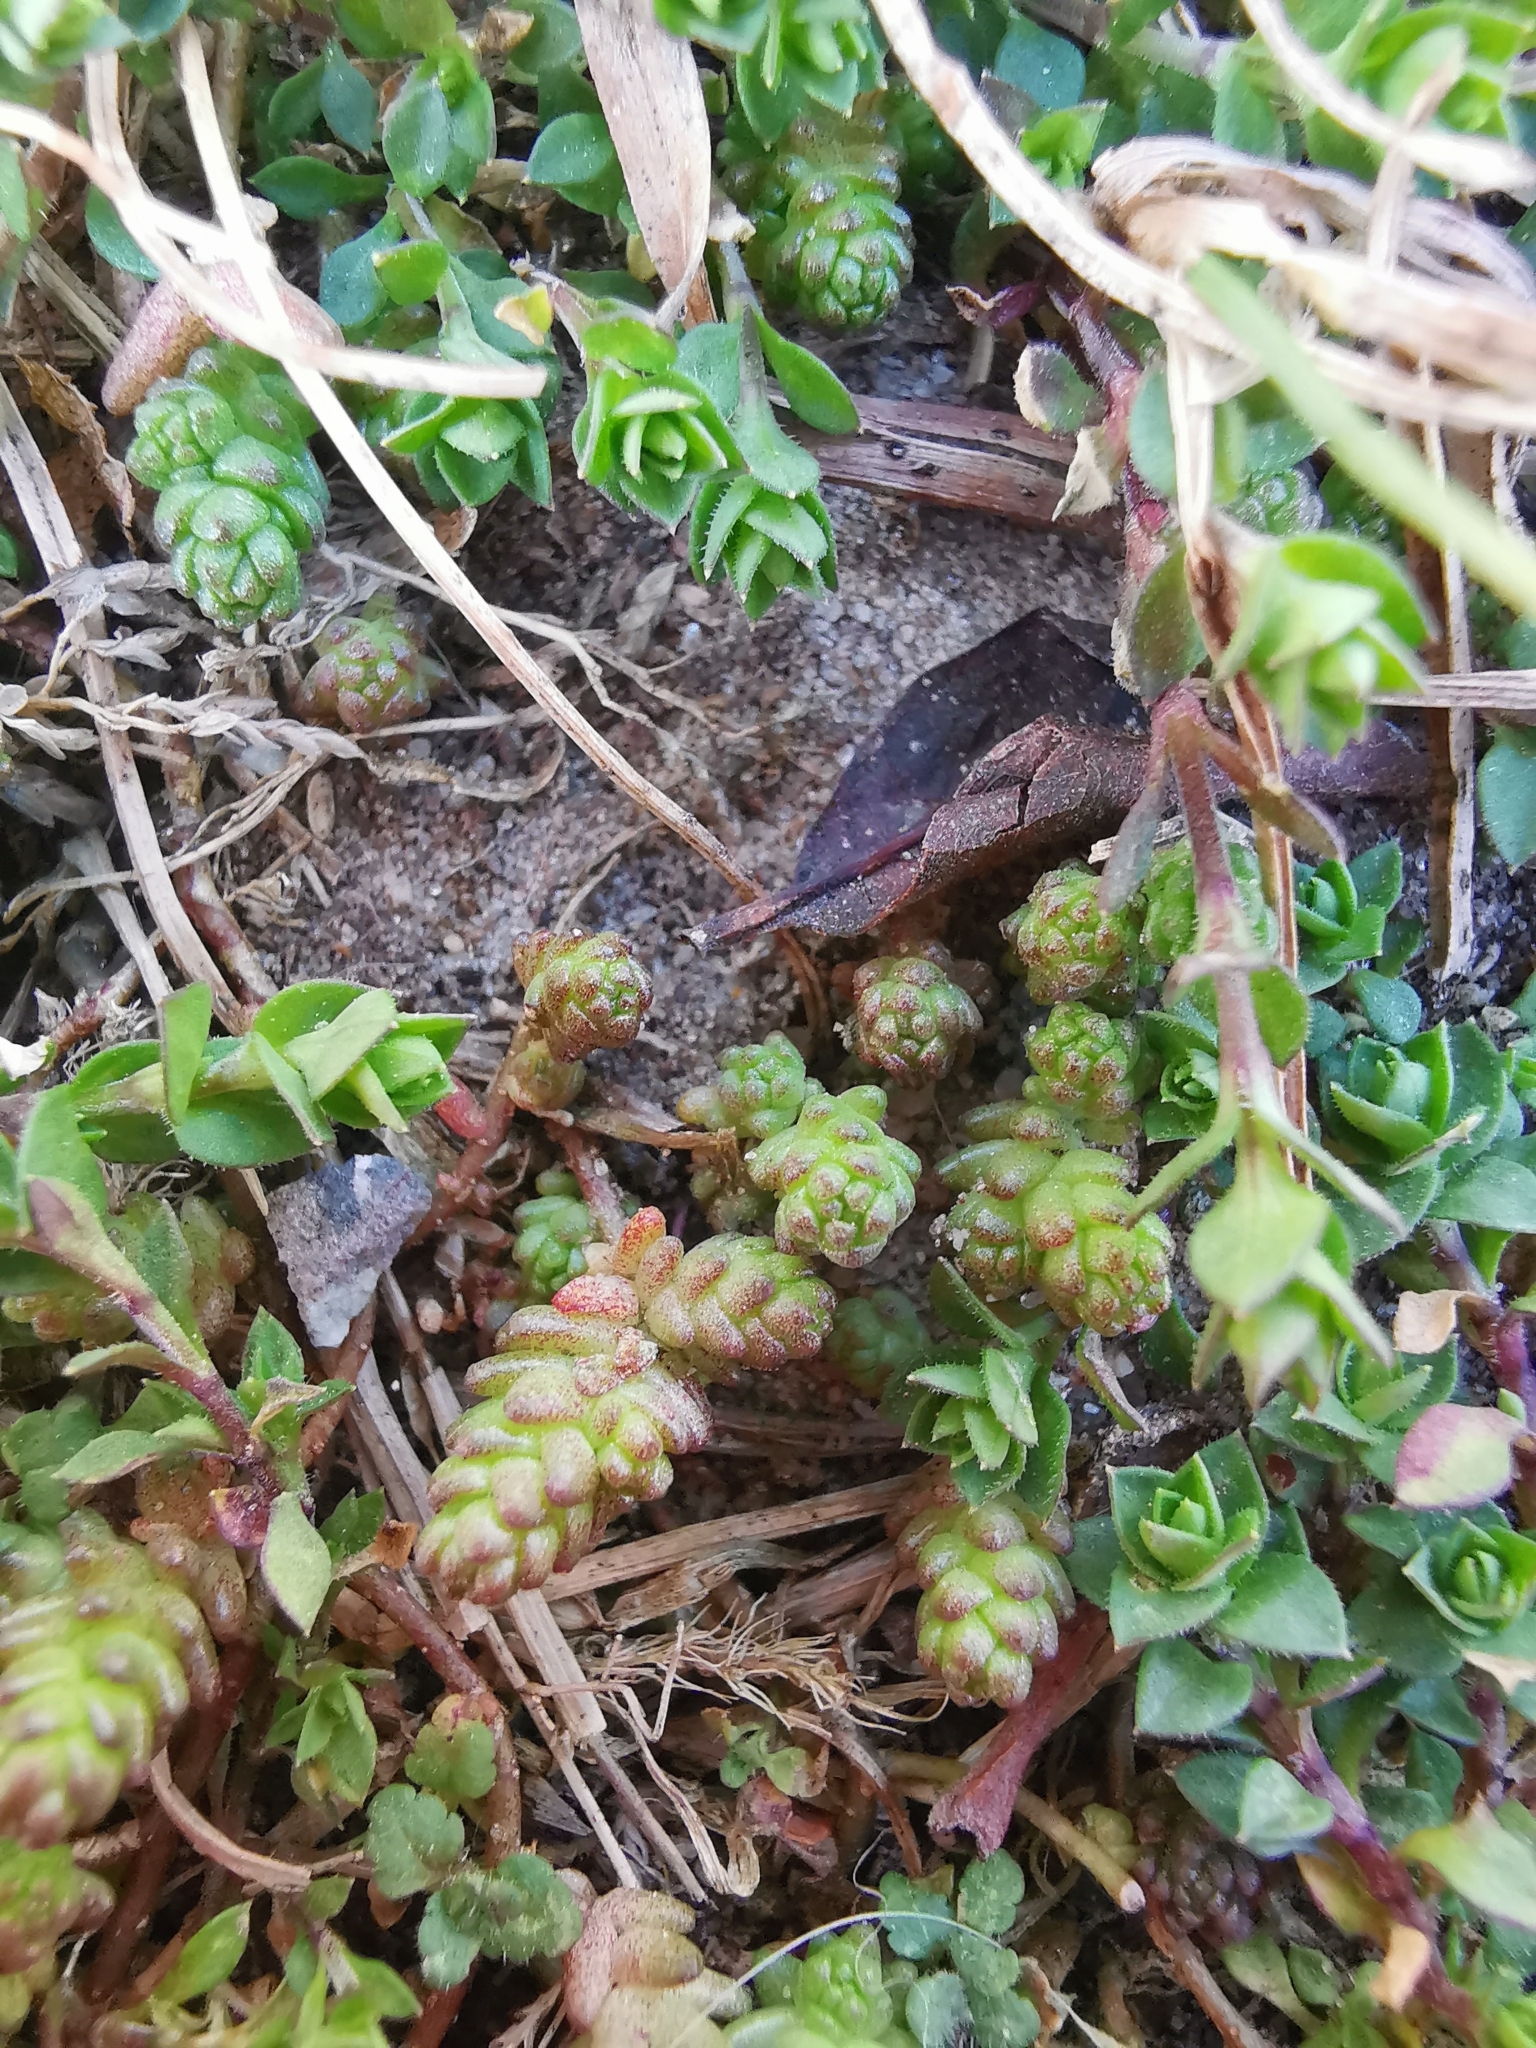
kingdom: Plantae
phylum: Tracheophyta
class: Magnoliopsida
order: Saxifragales
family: Crassulaceae
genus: Sedum
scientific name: Sedum acre
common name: Biting stonecrop
